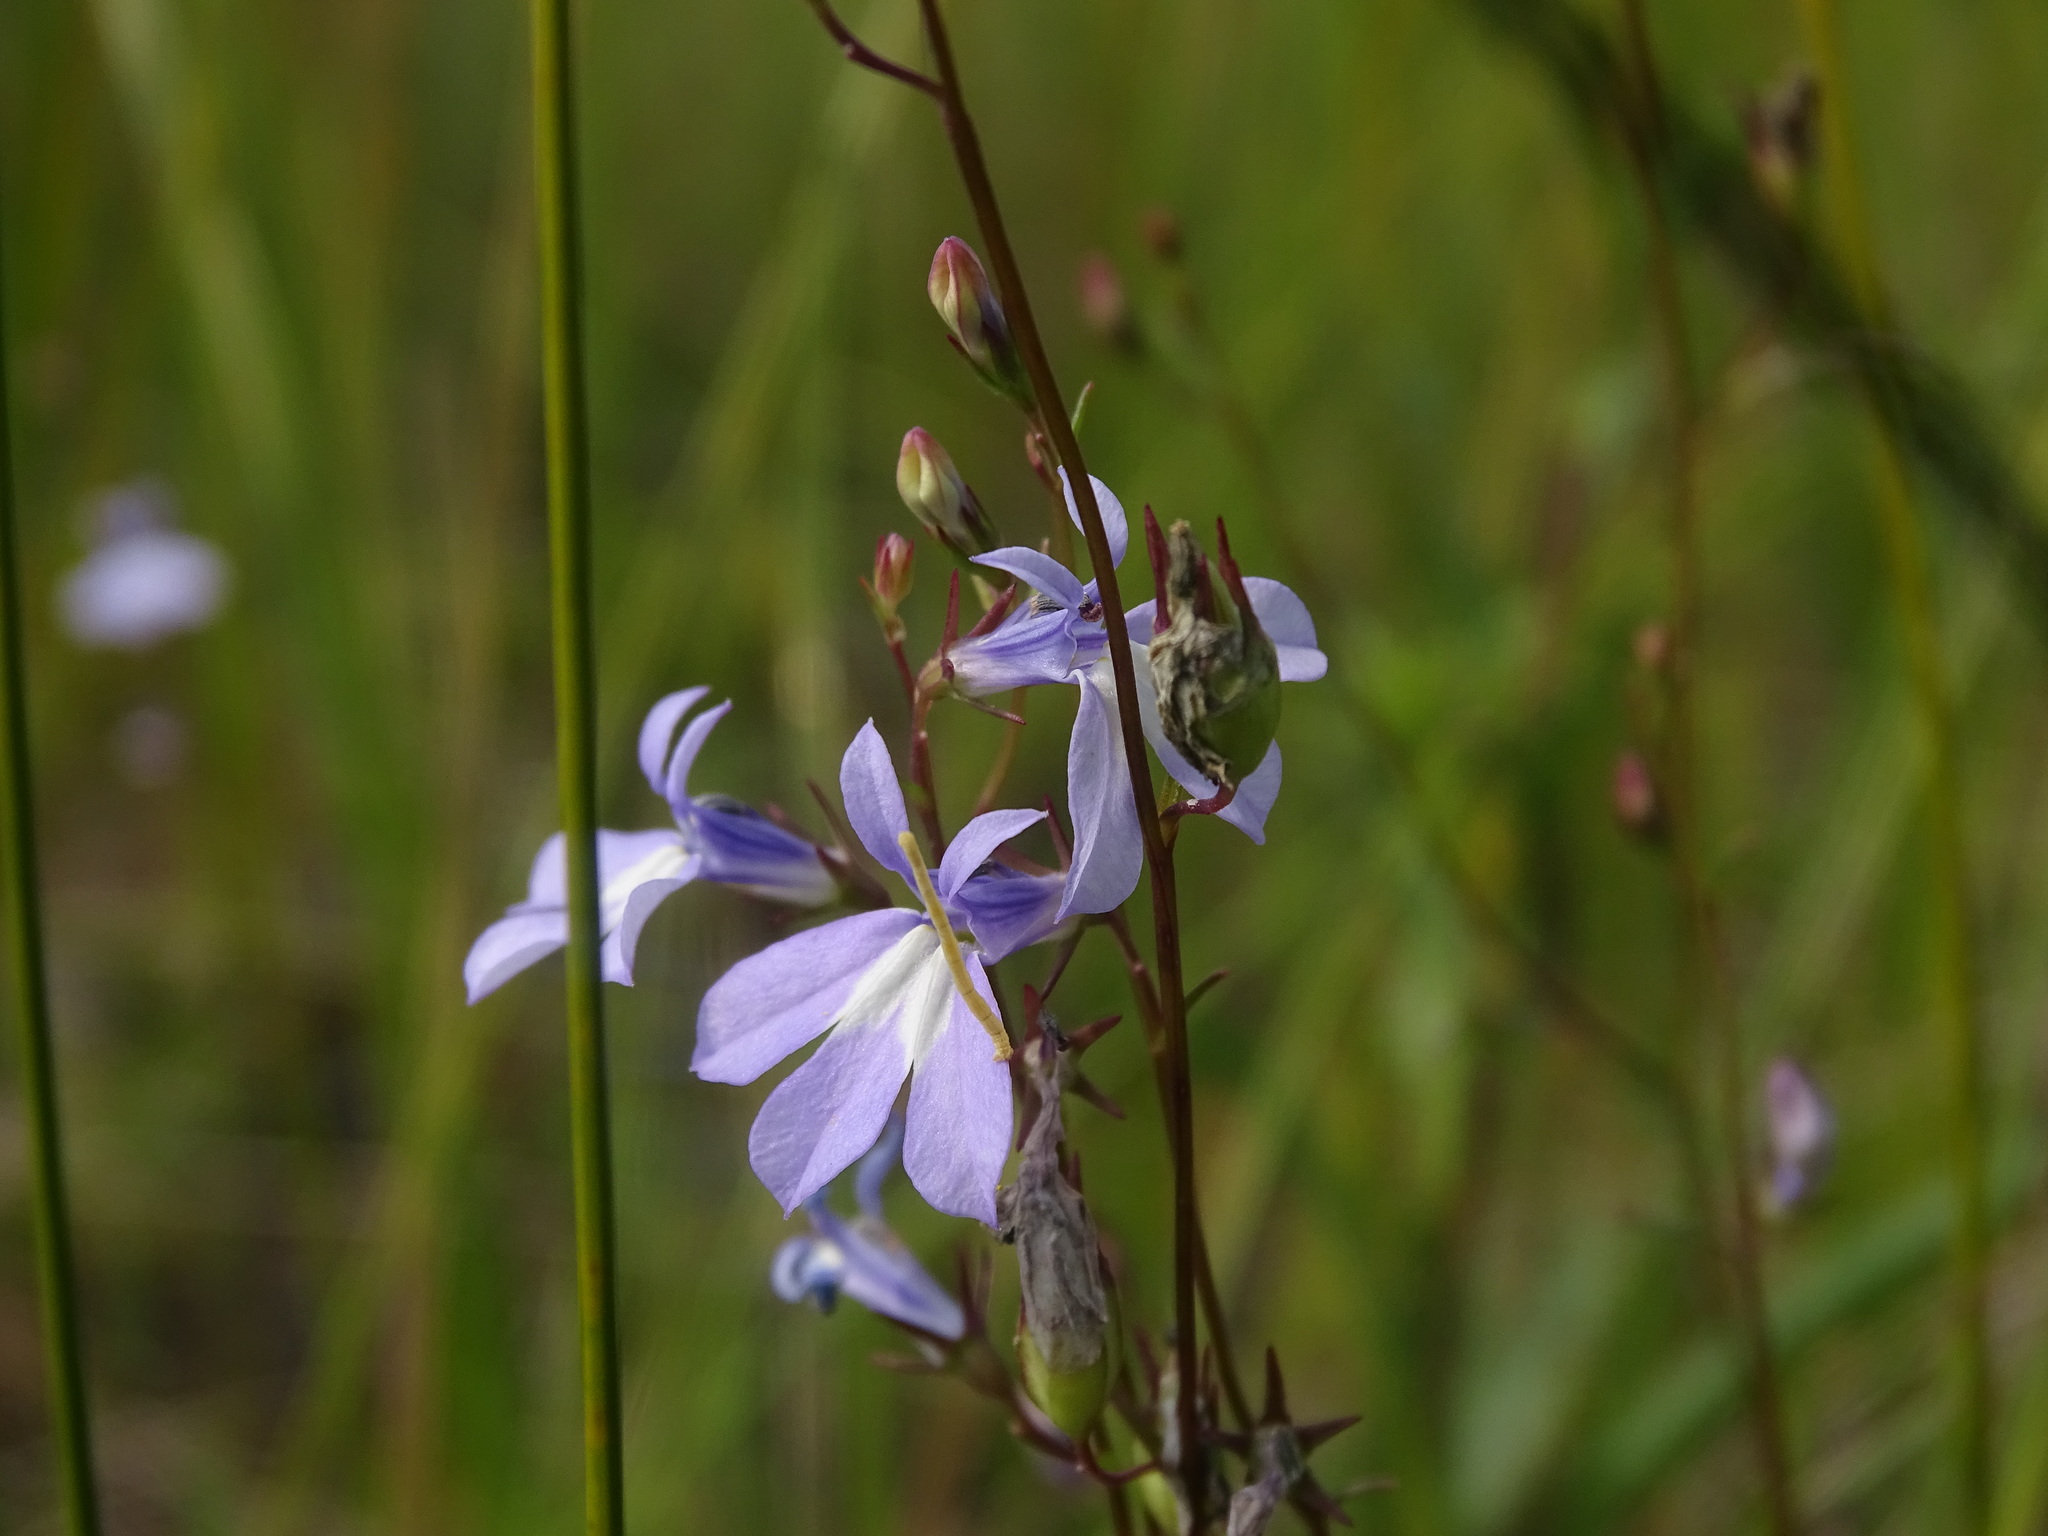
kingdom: Plantae
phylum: Tracheophyta
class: Magnoliopsida
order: Asterales
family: Campanulaceae
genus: Lobelia
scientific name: Lobelia kalmii
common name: Kalm's lobelia
